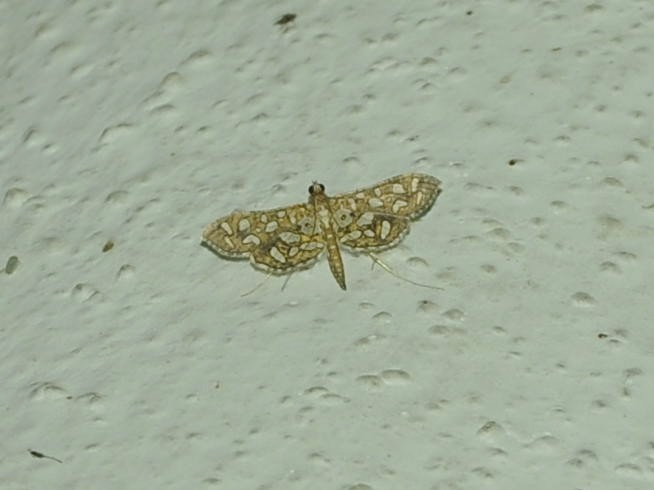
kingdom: Animalia
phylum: Arthropoda
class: Insecta
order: Lepidoptera
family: Crambidae
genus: Nausinoe
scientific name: Nausinoe geometralis
